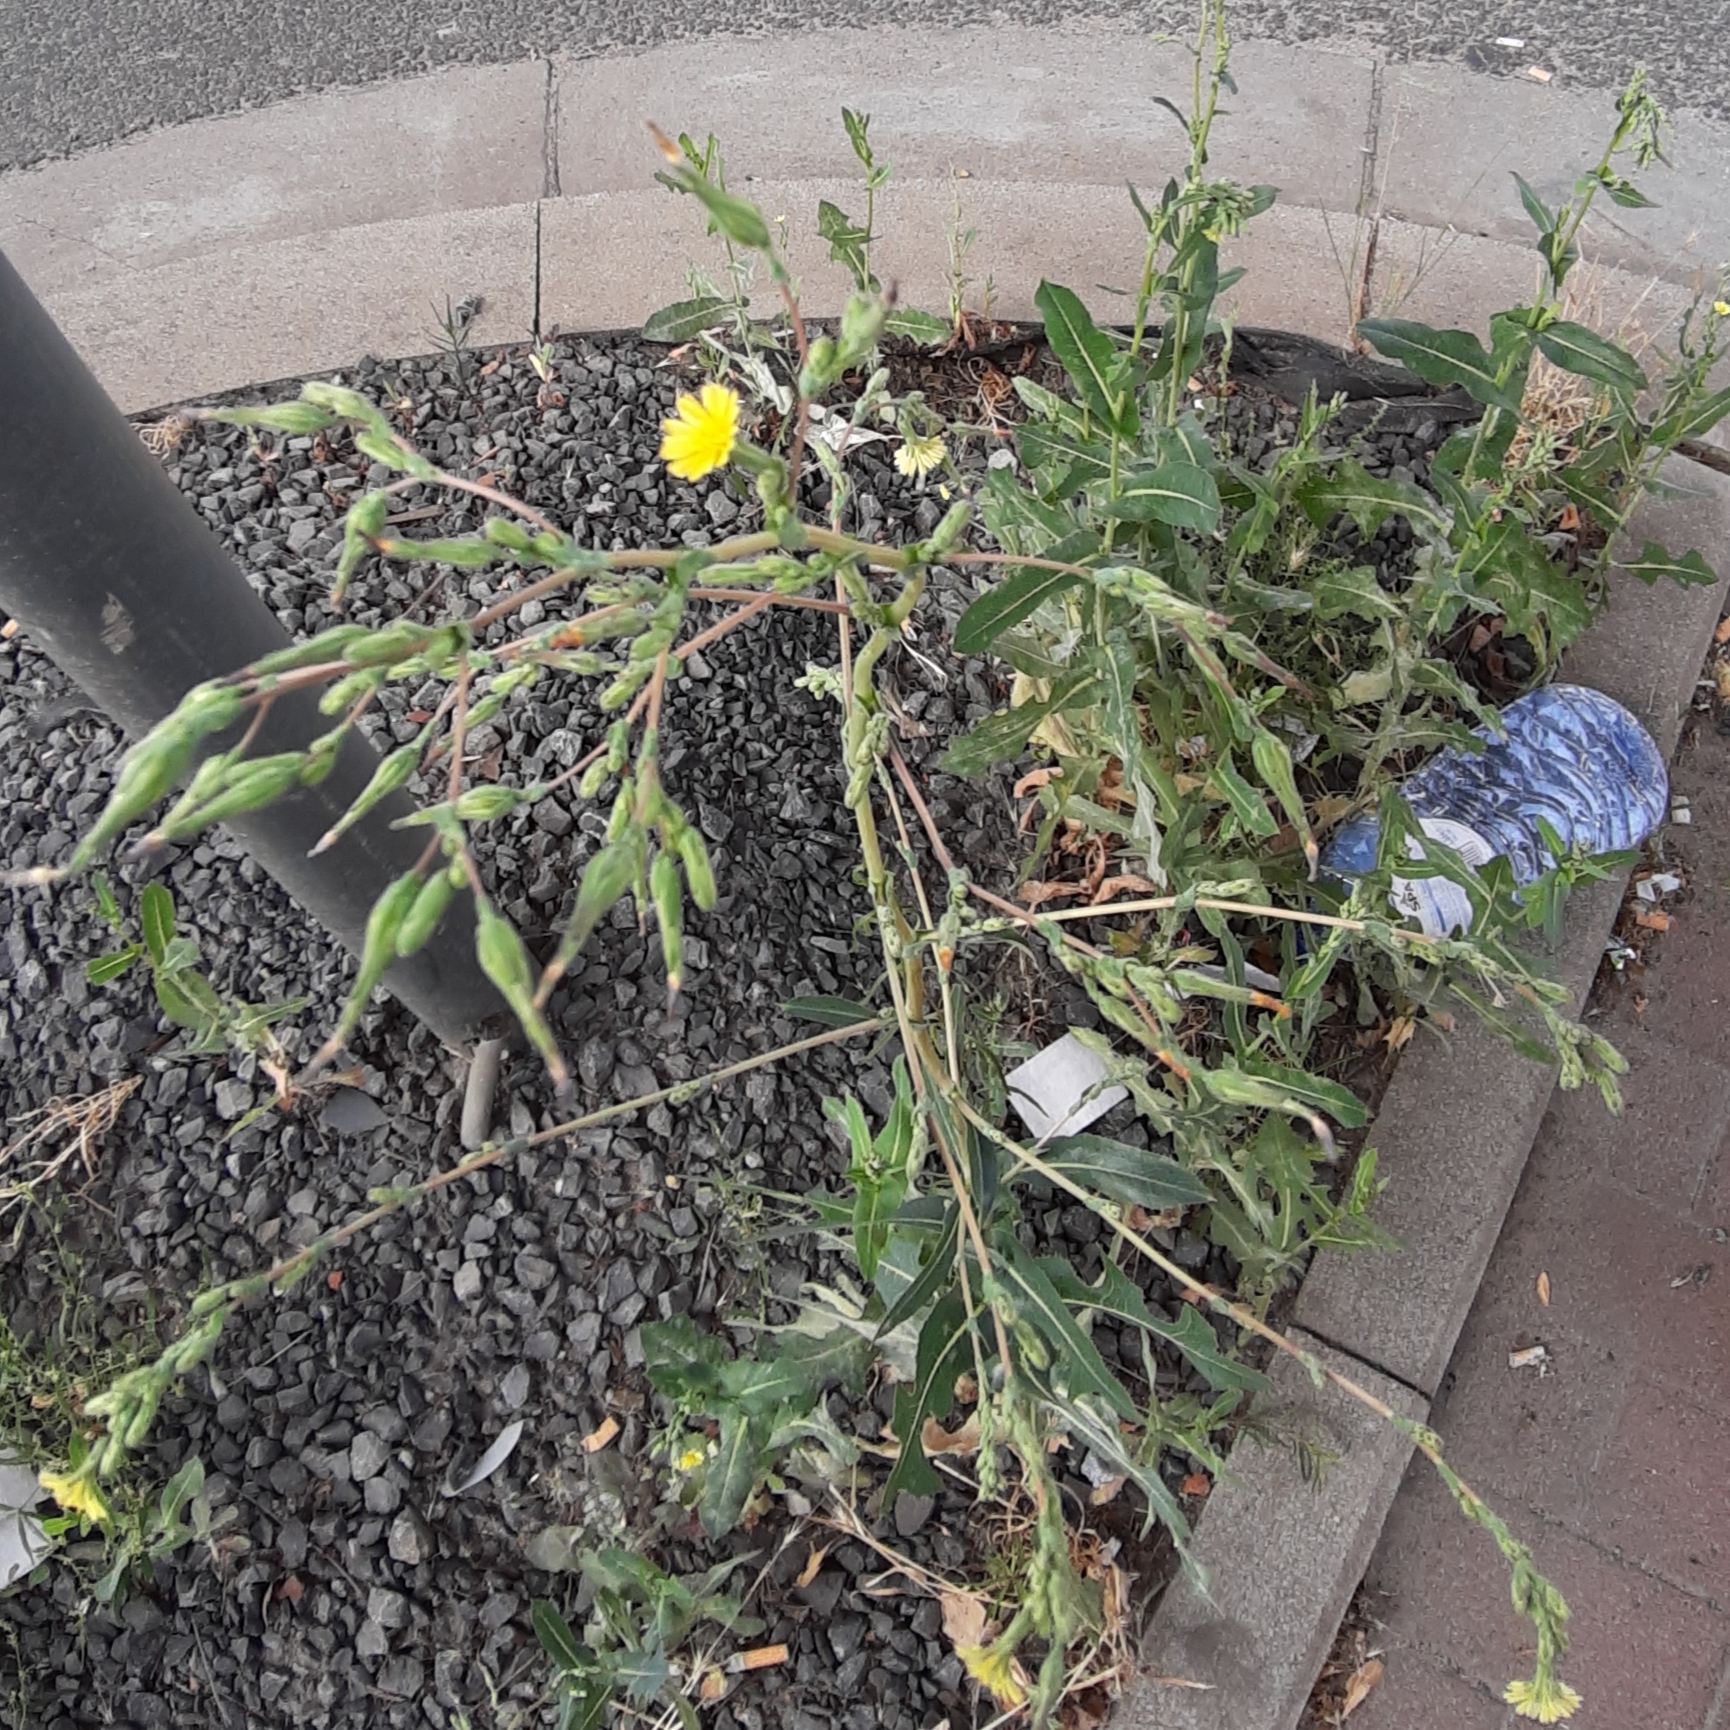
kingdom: Plantae
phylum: Tracheophyta
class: Magnoliopsida
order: Asterales
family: Asteraceae
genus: Lactuca
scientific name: Lactuca serriola
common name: Prickly lettuce
